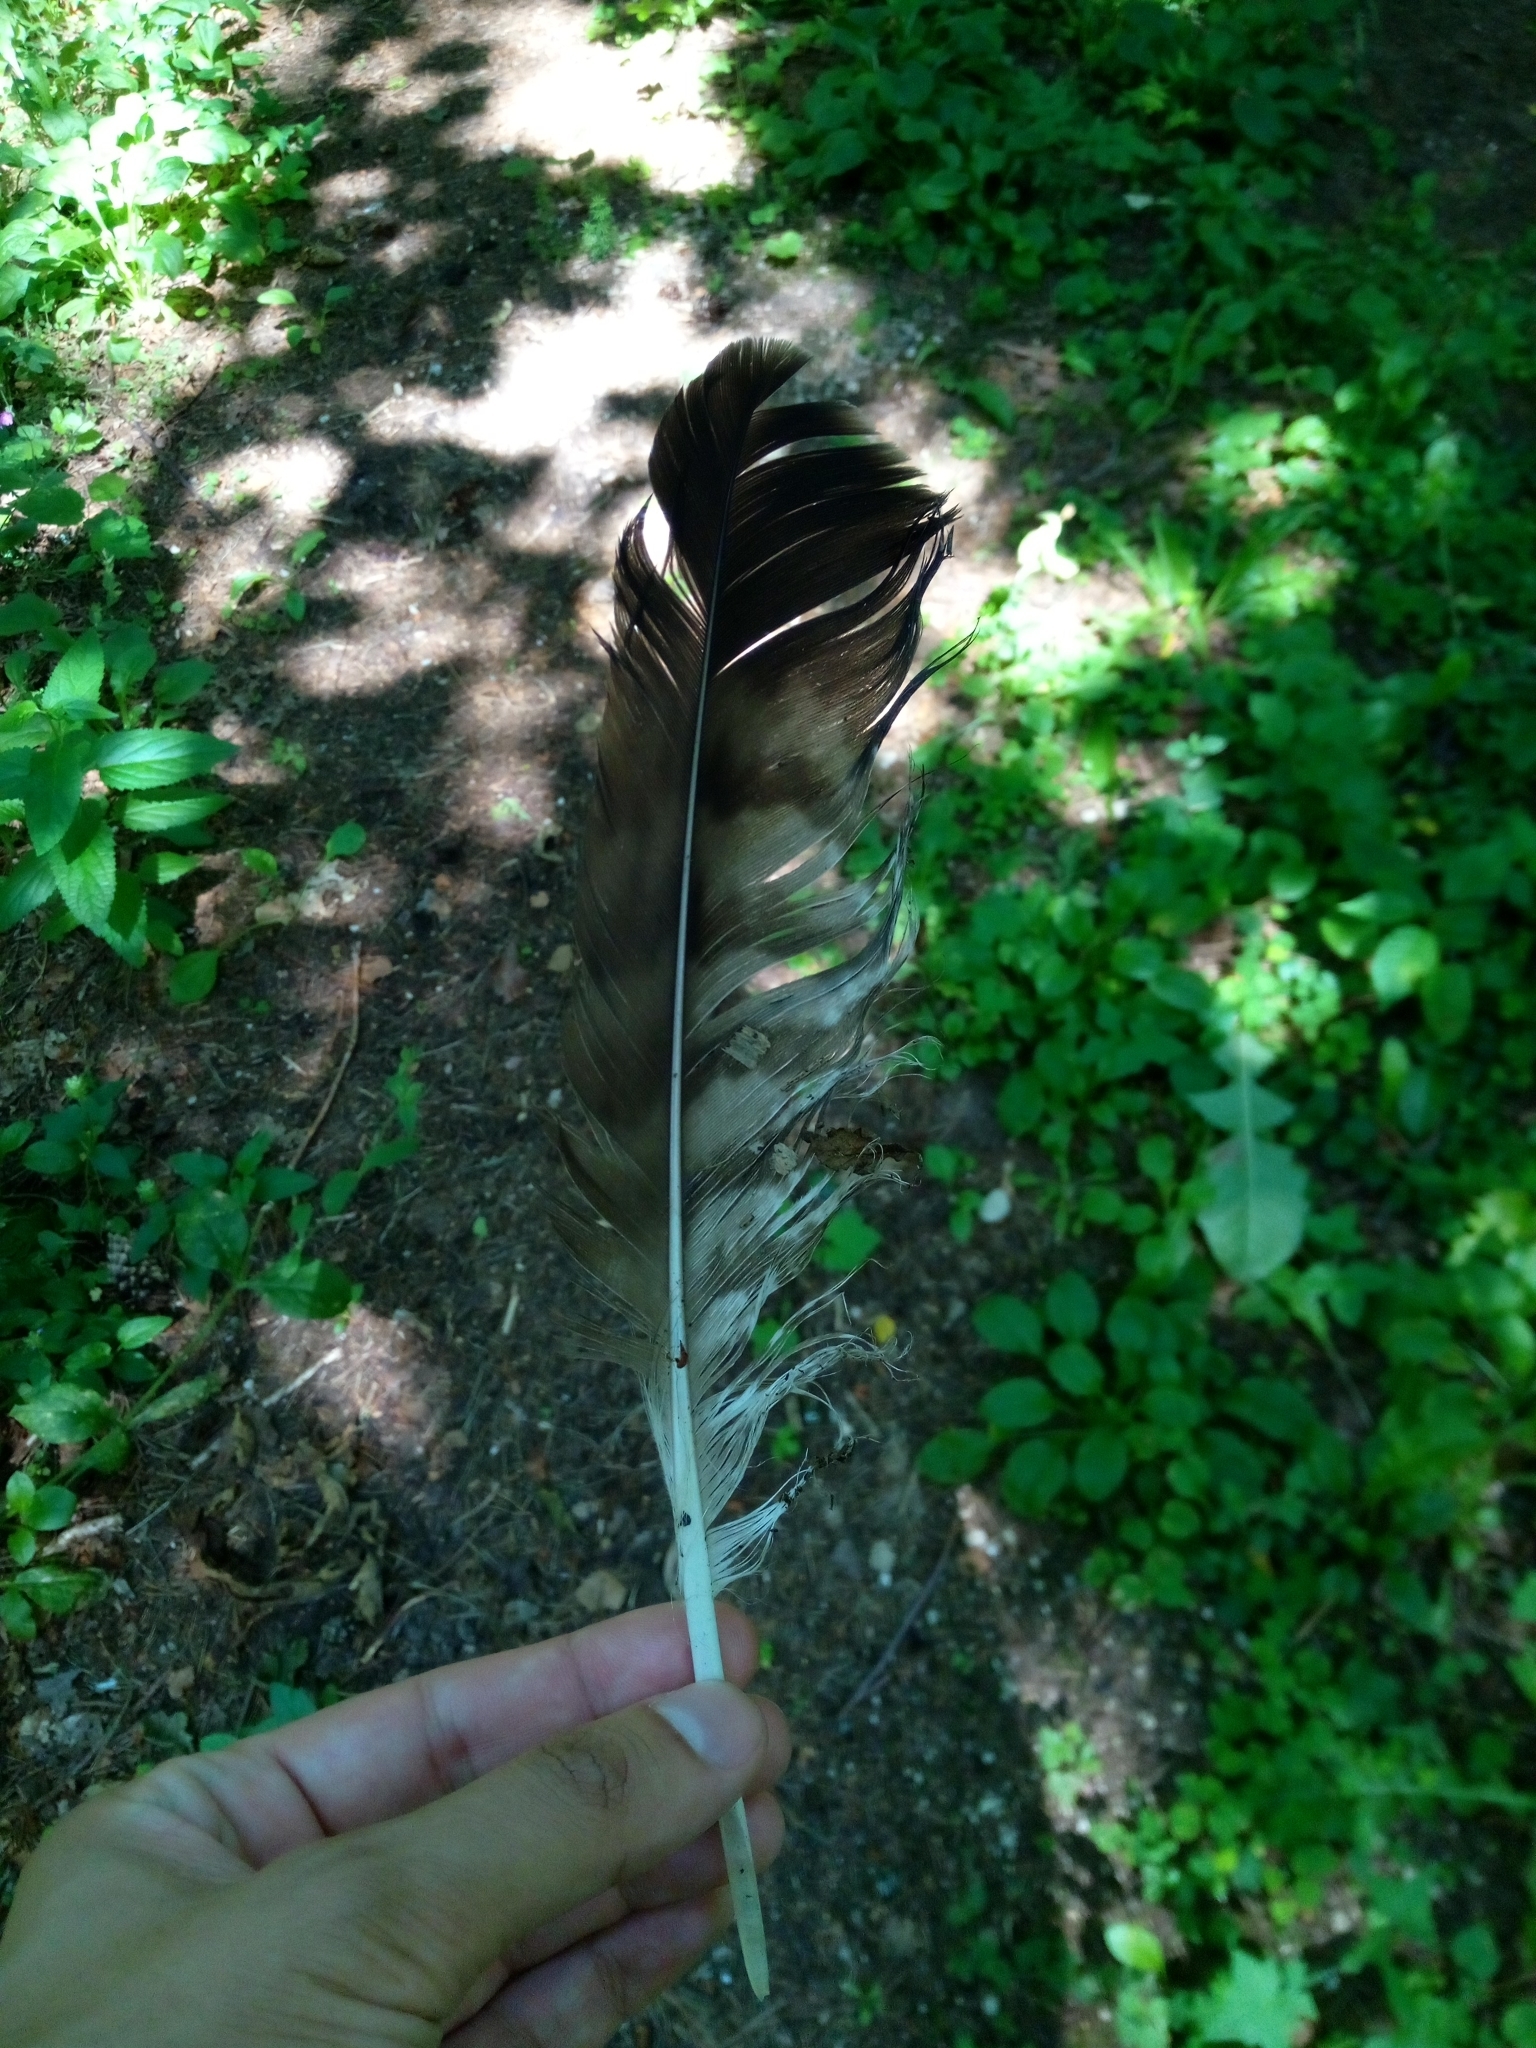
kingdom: Animalia
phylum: Chordata
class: Aves
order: Accipitriformes
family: Accipitridae
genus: Buteo
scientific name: Buteo buteo
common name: Common buzzard
